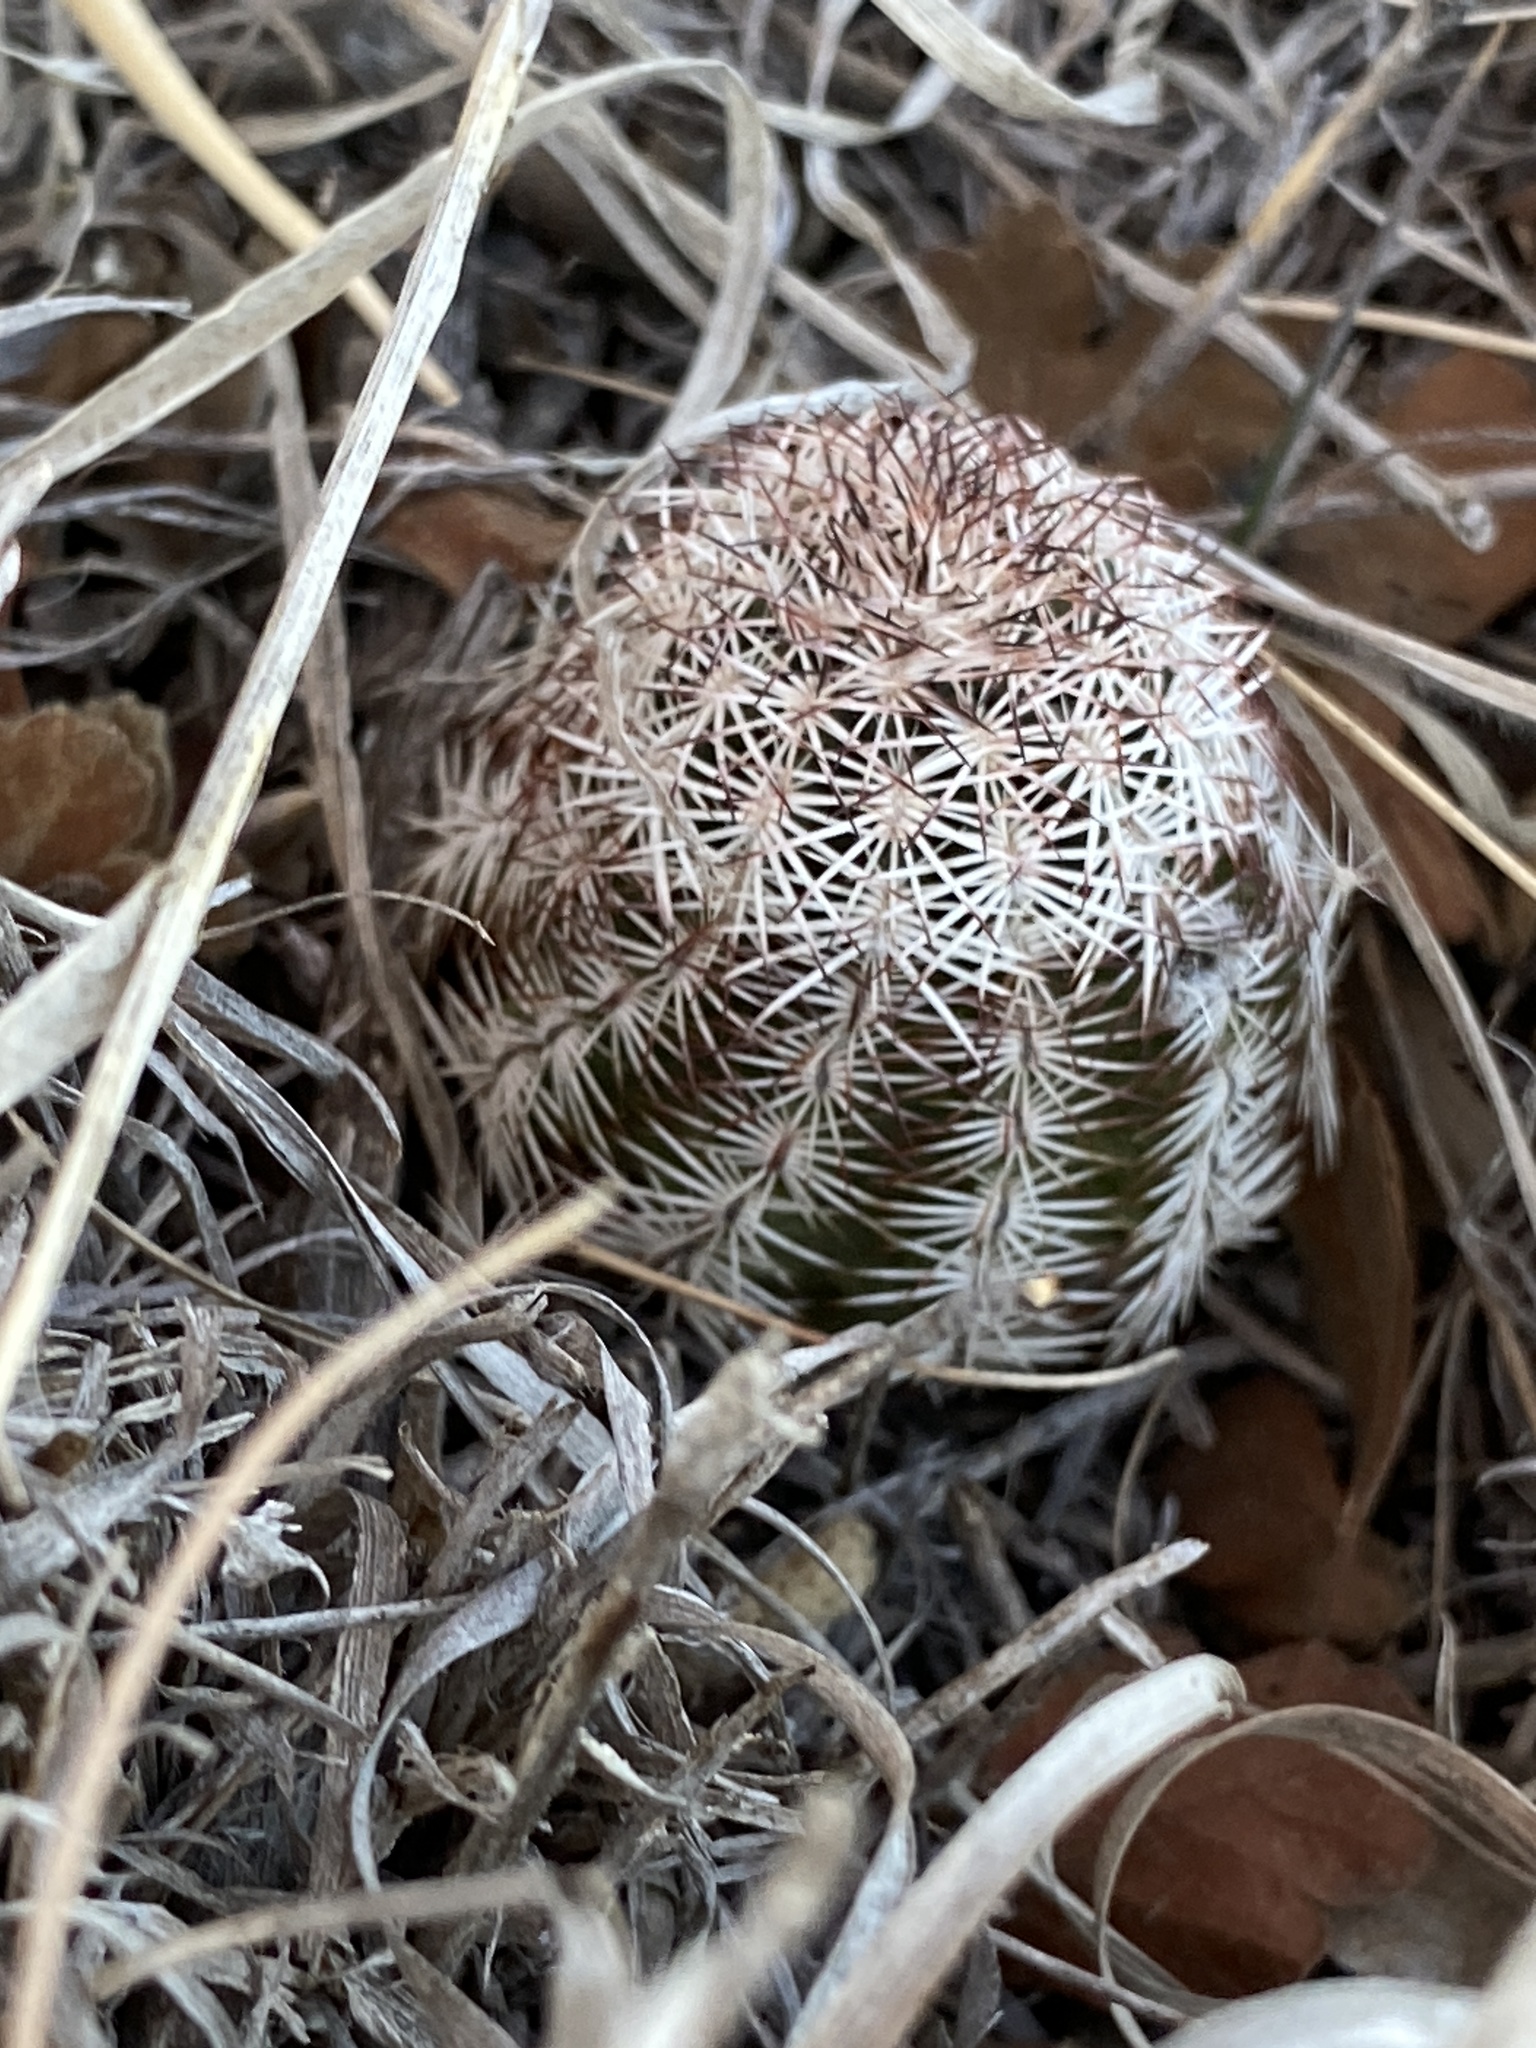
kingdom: Plantae
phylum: Tracheophyta
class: Magnoliopsida
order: Caryophyllales
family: Cactaceae
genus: Echinocereus
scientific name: Echinocereus reichenbachii
